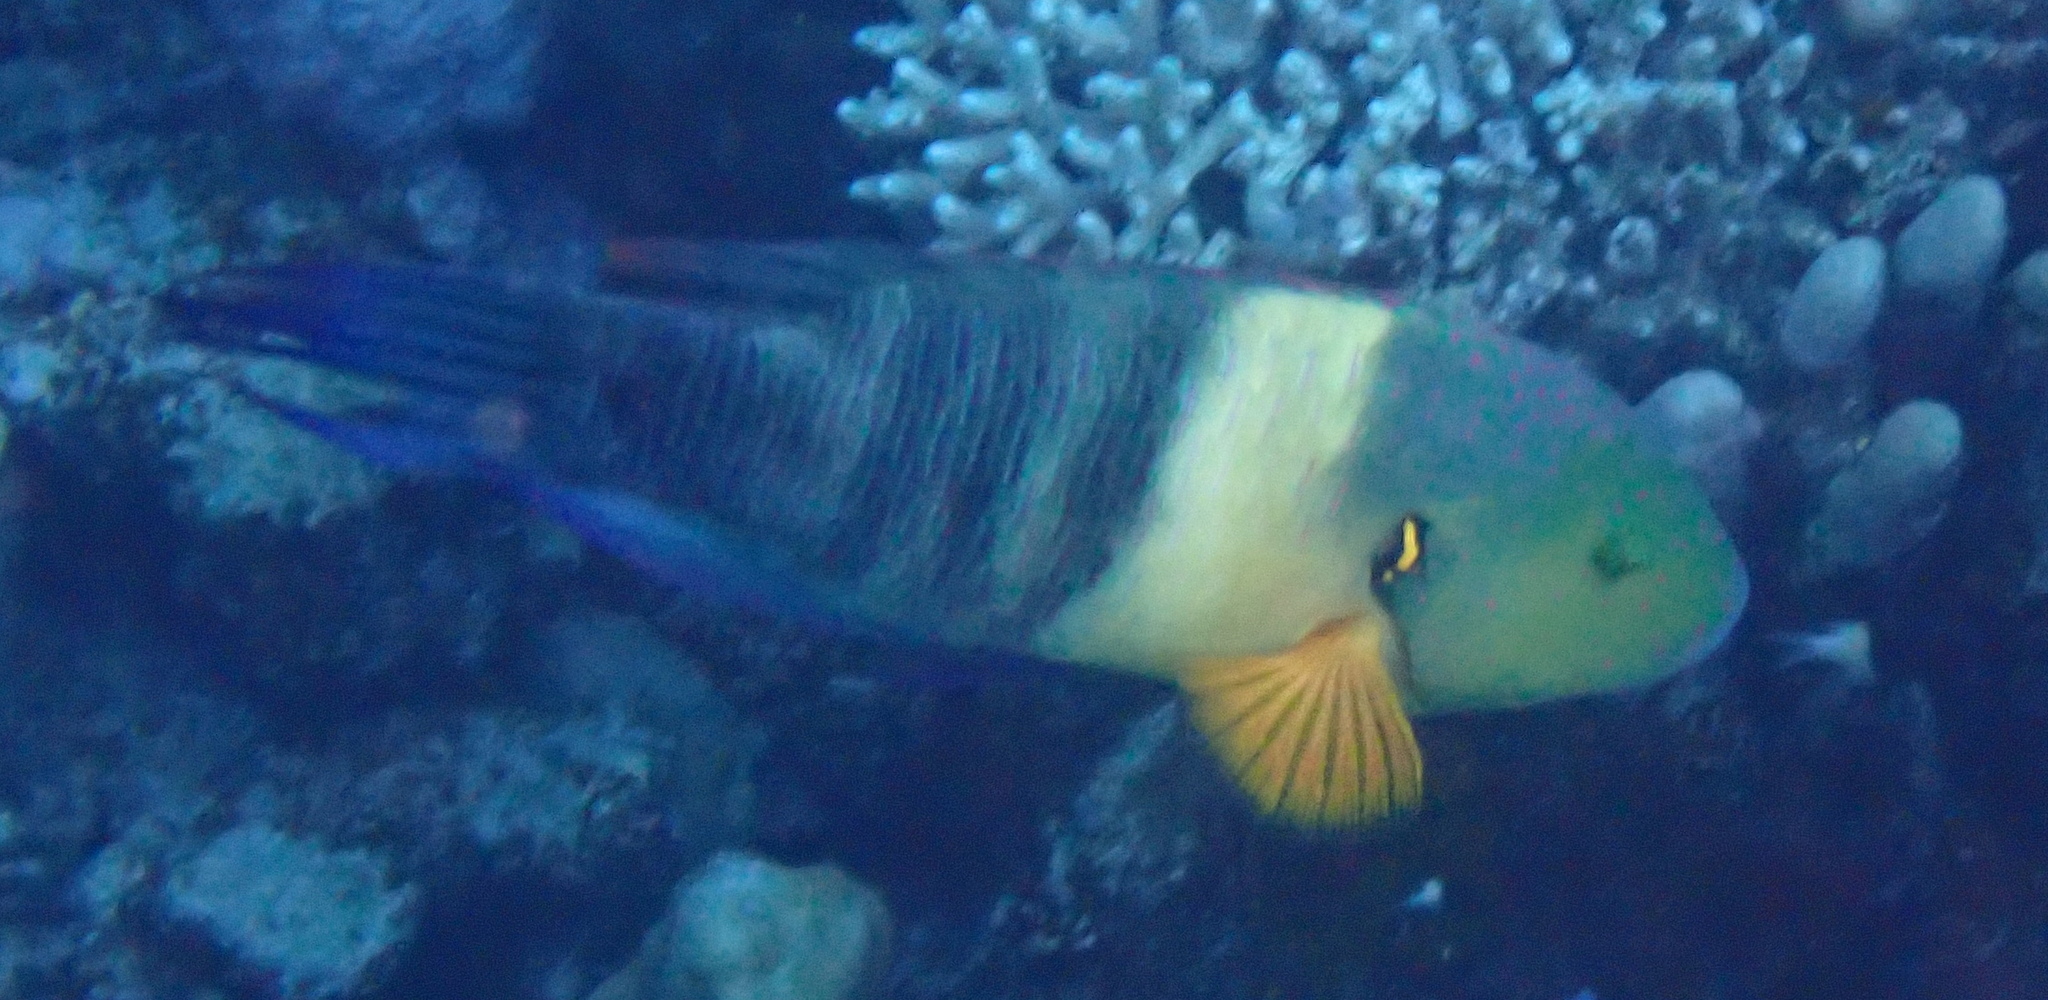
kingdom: Animalia
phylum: Chordata
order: Perciformes
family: Labridae
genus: Cheilinus
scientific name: Cheilinus lunulatus
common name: Broomtail wrasse
